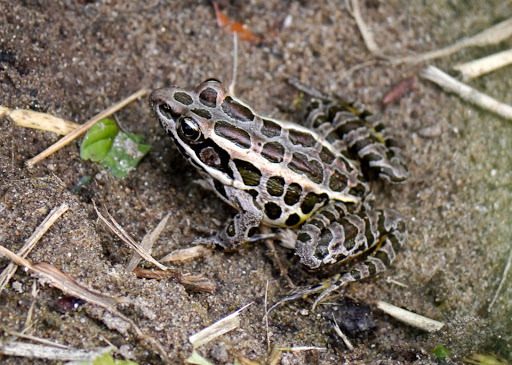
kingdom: Animalia
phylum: Chordata
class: Amphibia
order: Anura
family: Ranidae
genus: Lithobates
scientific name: Lithobates palustris
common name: Pickerel frog
